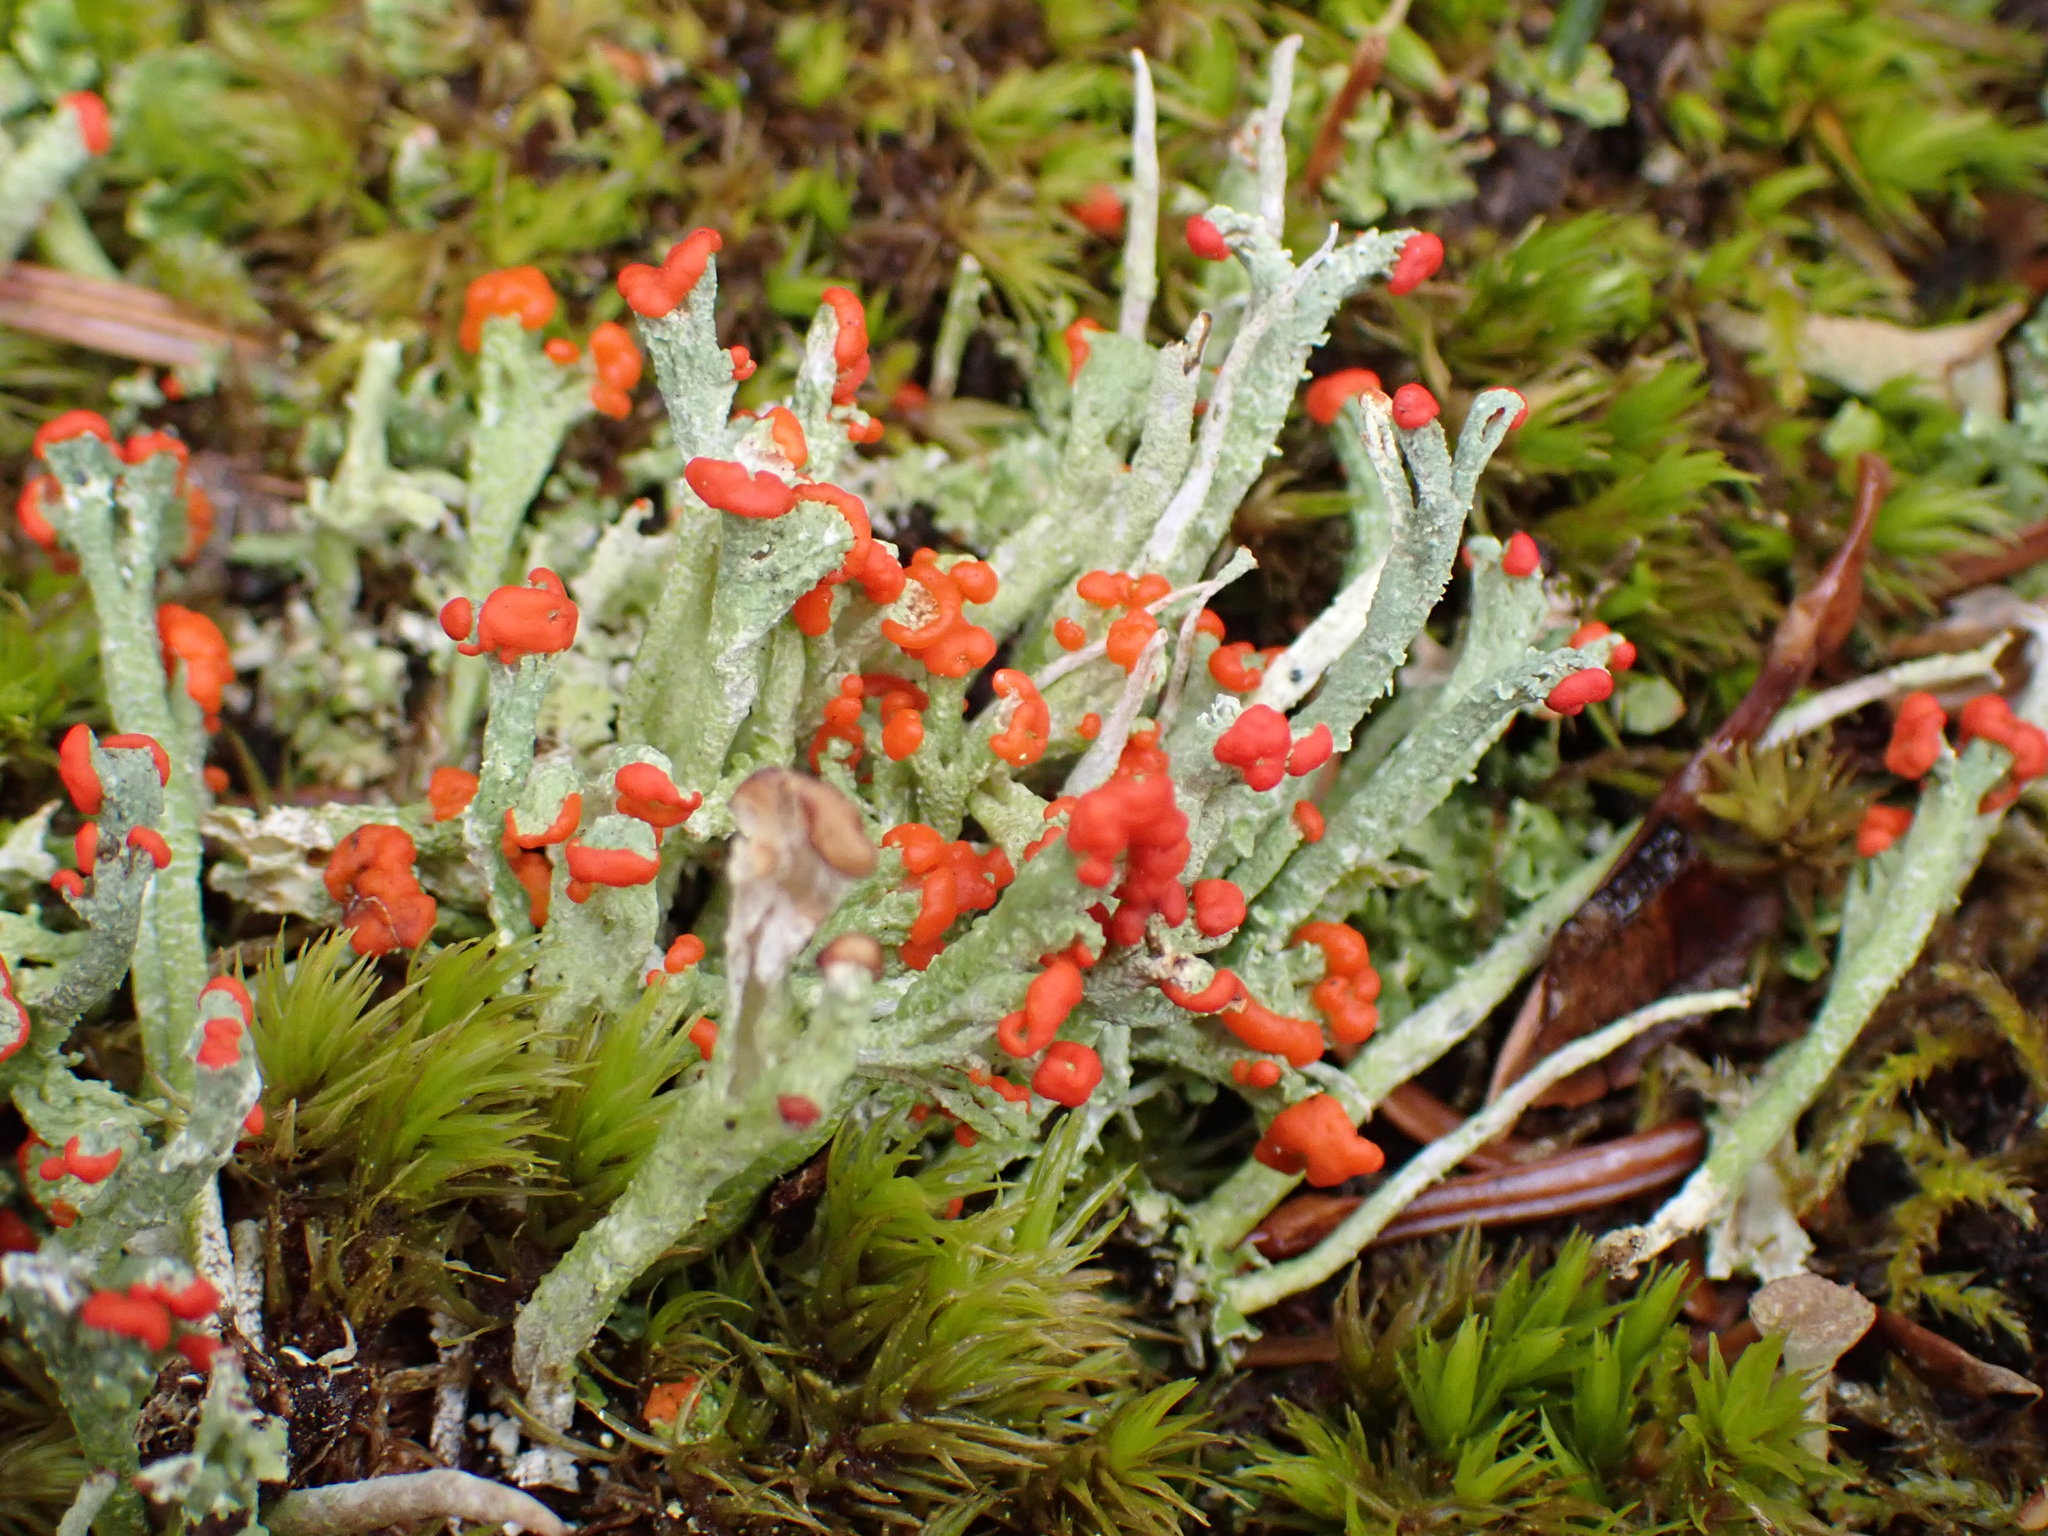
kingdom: Fungi
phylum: Ascomycota
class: Lecanoromycetes
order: Lecanorales
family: Cladoniaceae
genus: Cladonia
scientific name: Cladonia cristatella
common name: British soldier lichen
